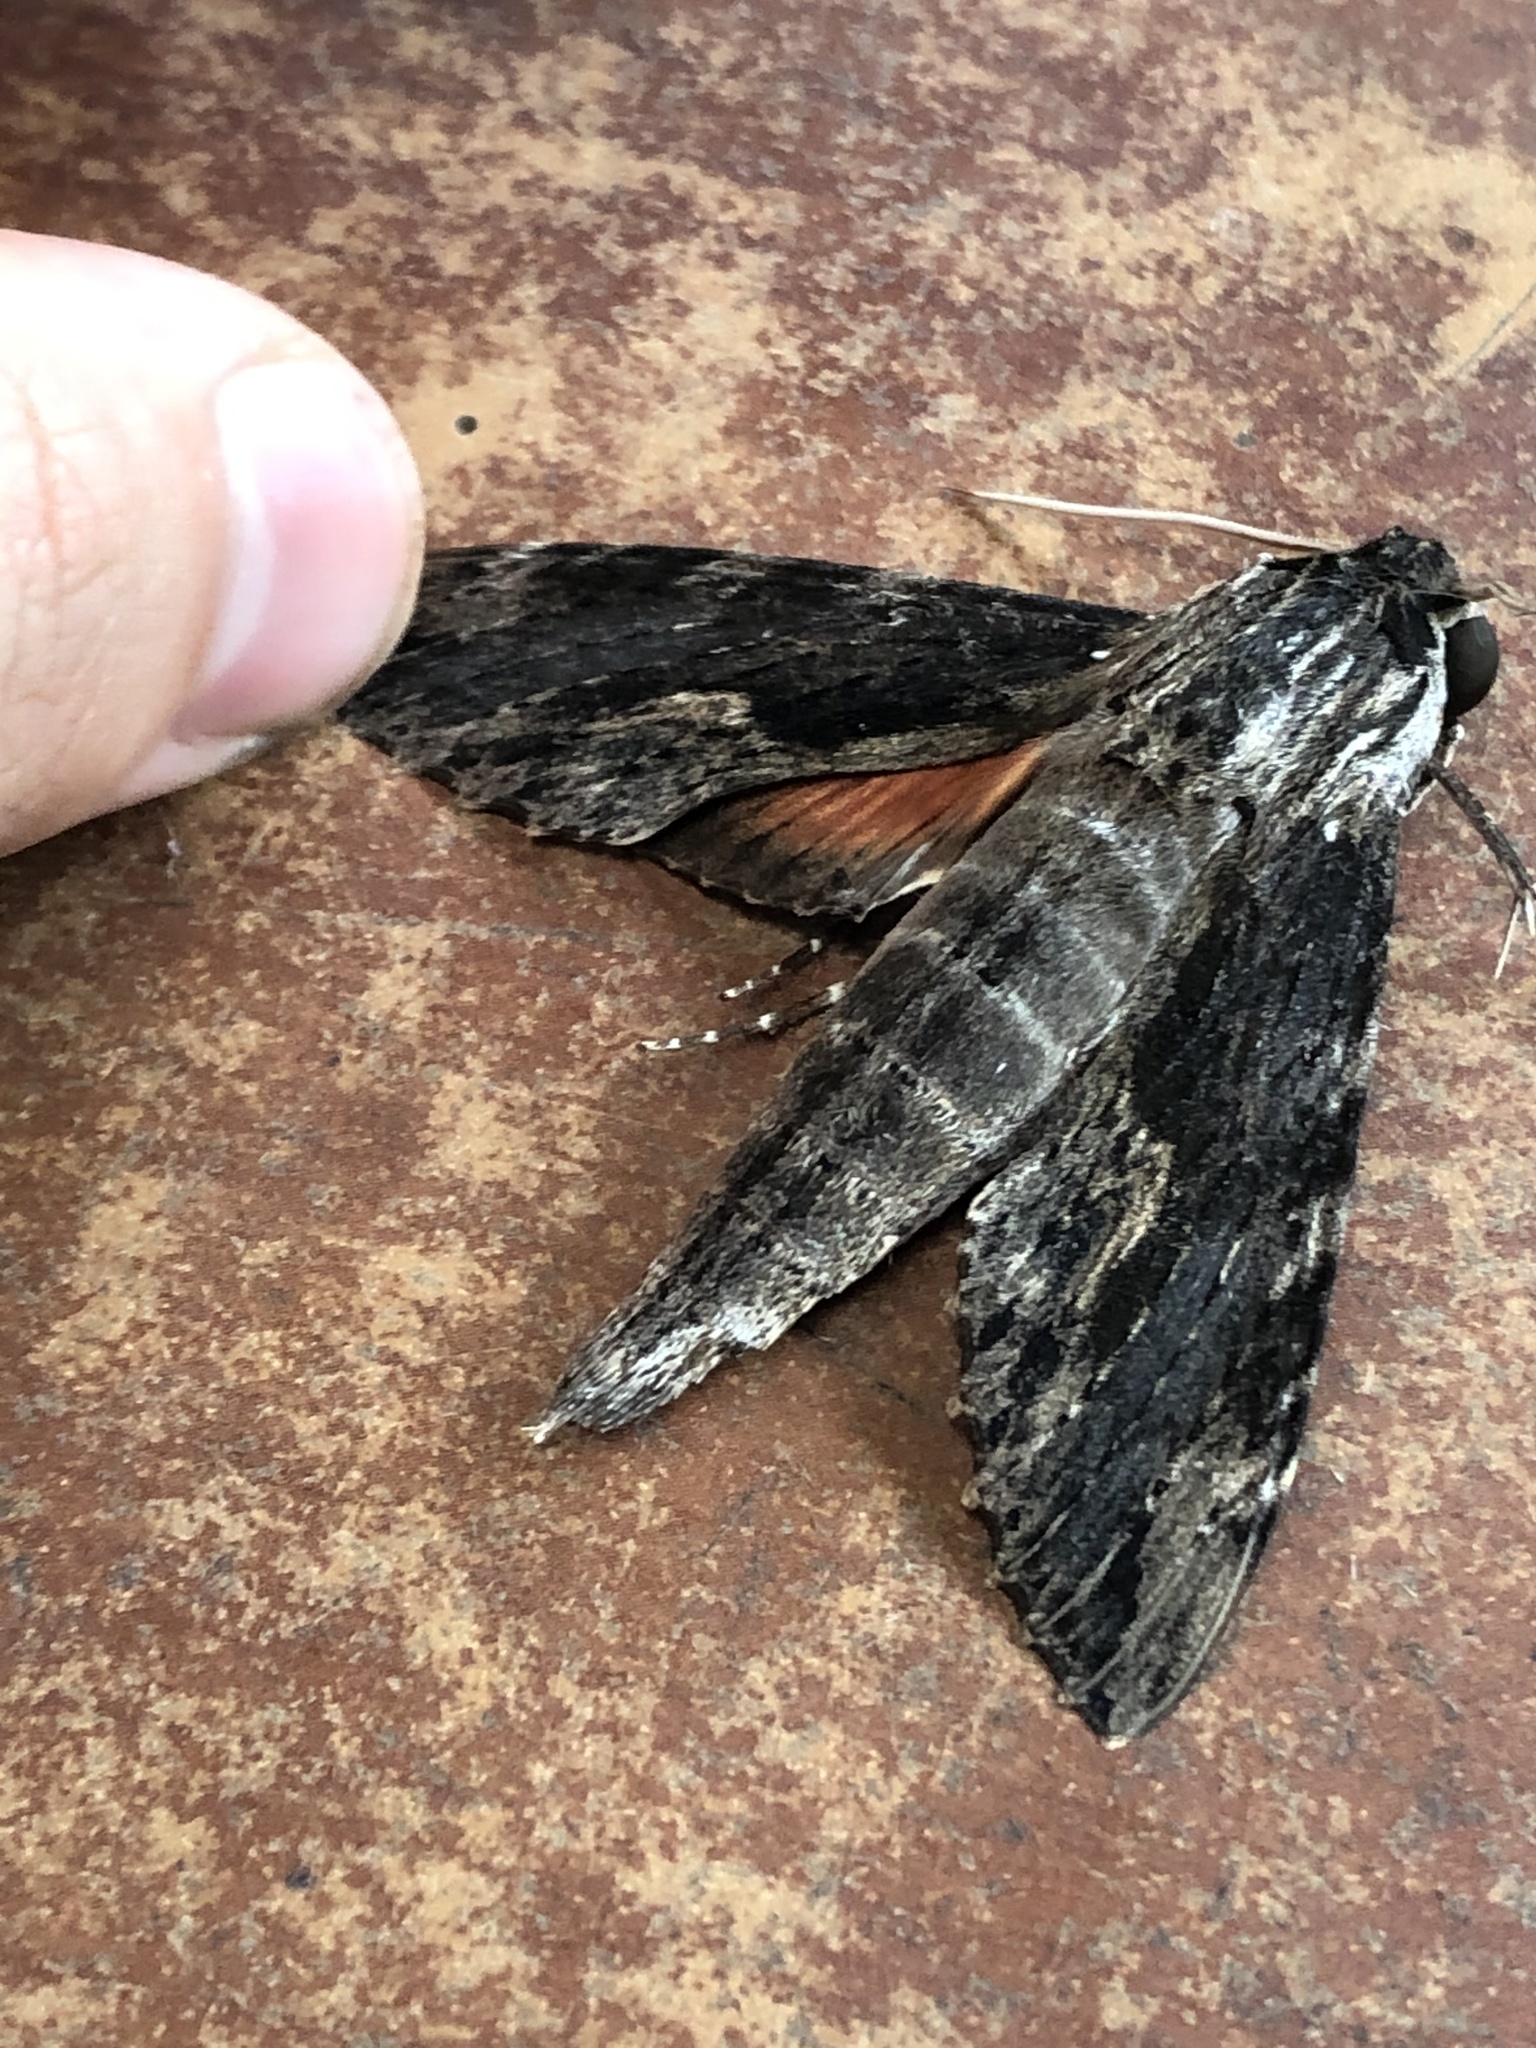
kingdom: Animalia
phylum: Arthropoda
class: Insecta
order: Lepidoptera
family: Sphingidae
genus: Erinnyis
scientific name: Erinnyis oenotrus
